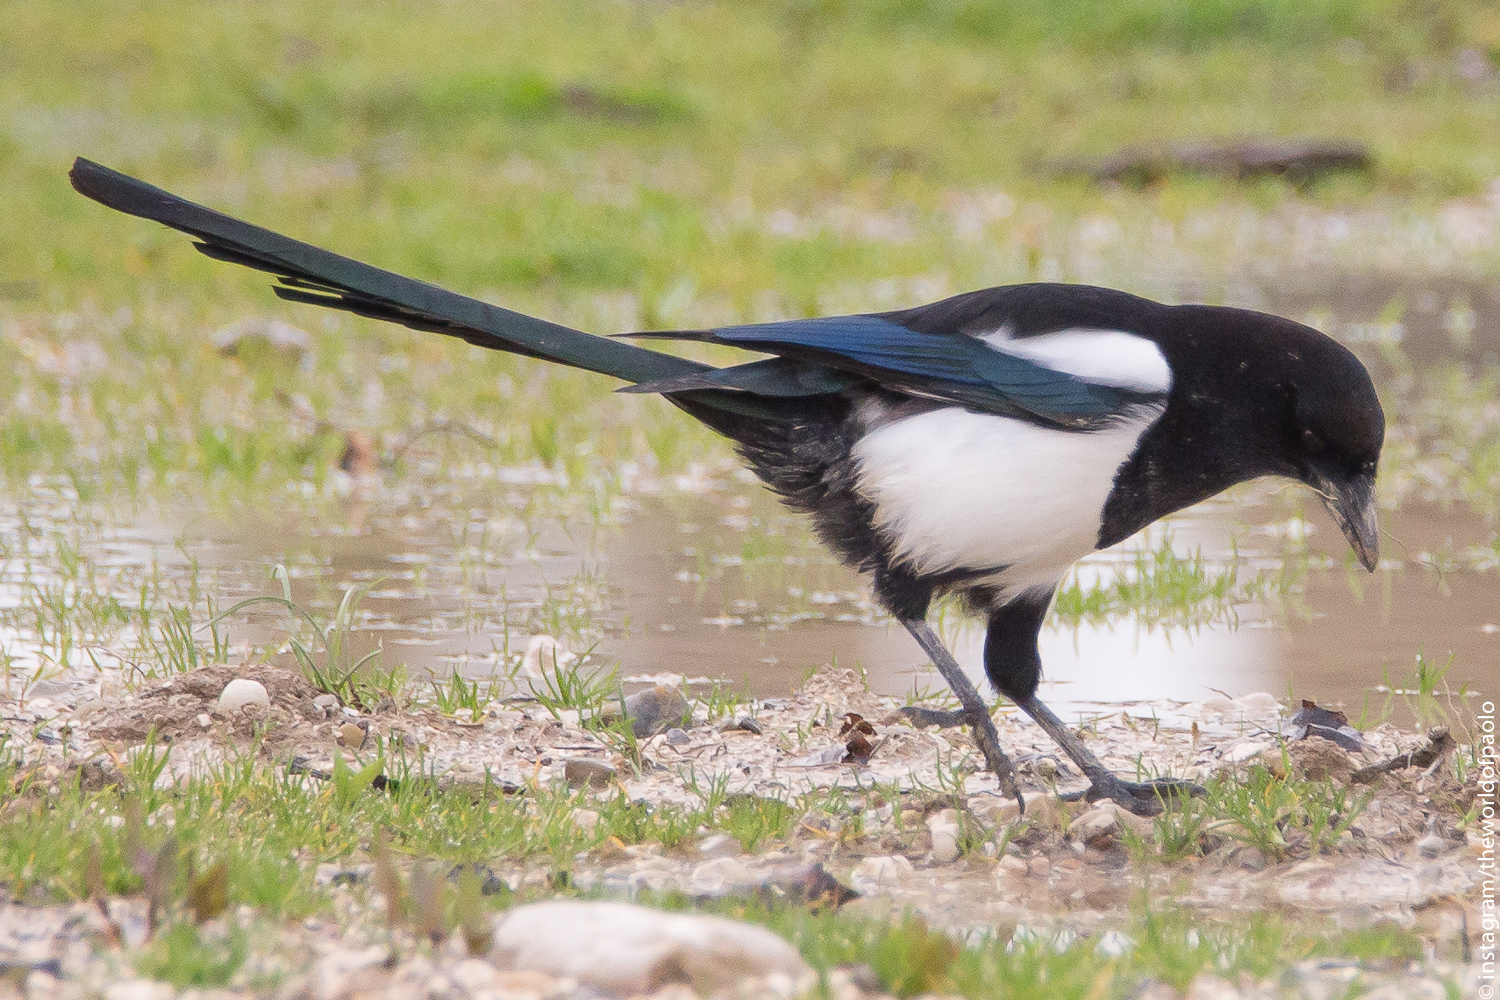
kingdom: Animalia
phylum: Chordata
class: Aves
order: Passeriformes
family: Corvidae
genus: Pica
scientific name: Pica pica
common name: Eurasian magpie
